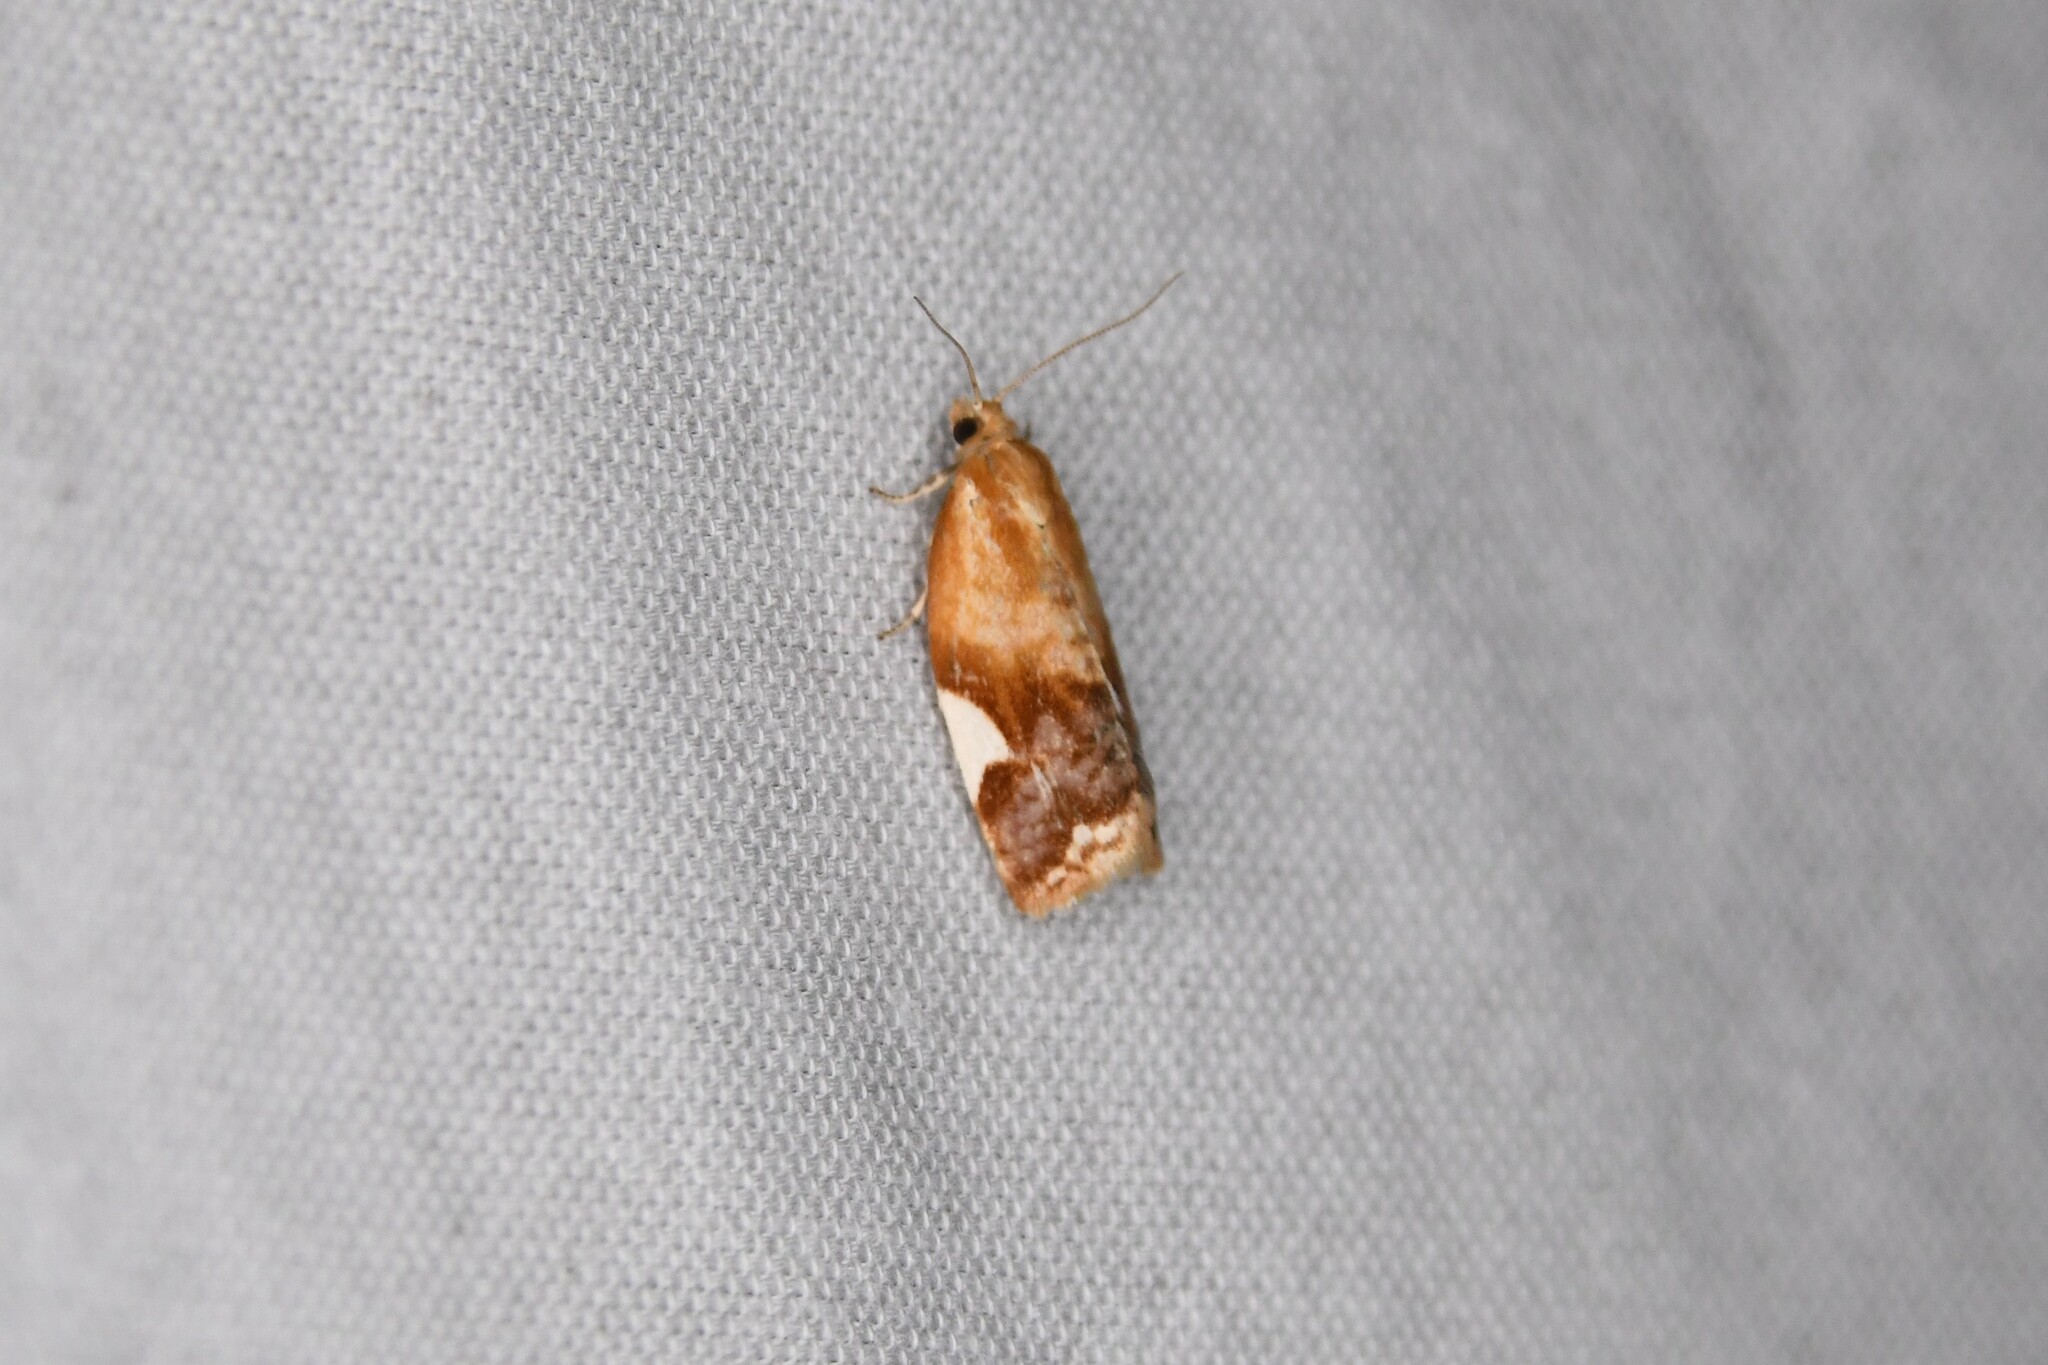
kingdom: Animalia
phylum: Arthropoda
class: Insecta
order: Lepidoptera
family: Tortricidae
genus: Clepsis
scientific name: Clepsis persicana
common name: White triangle tortrix
